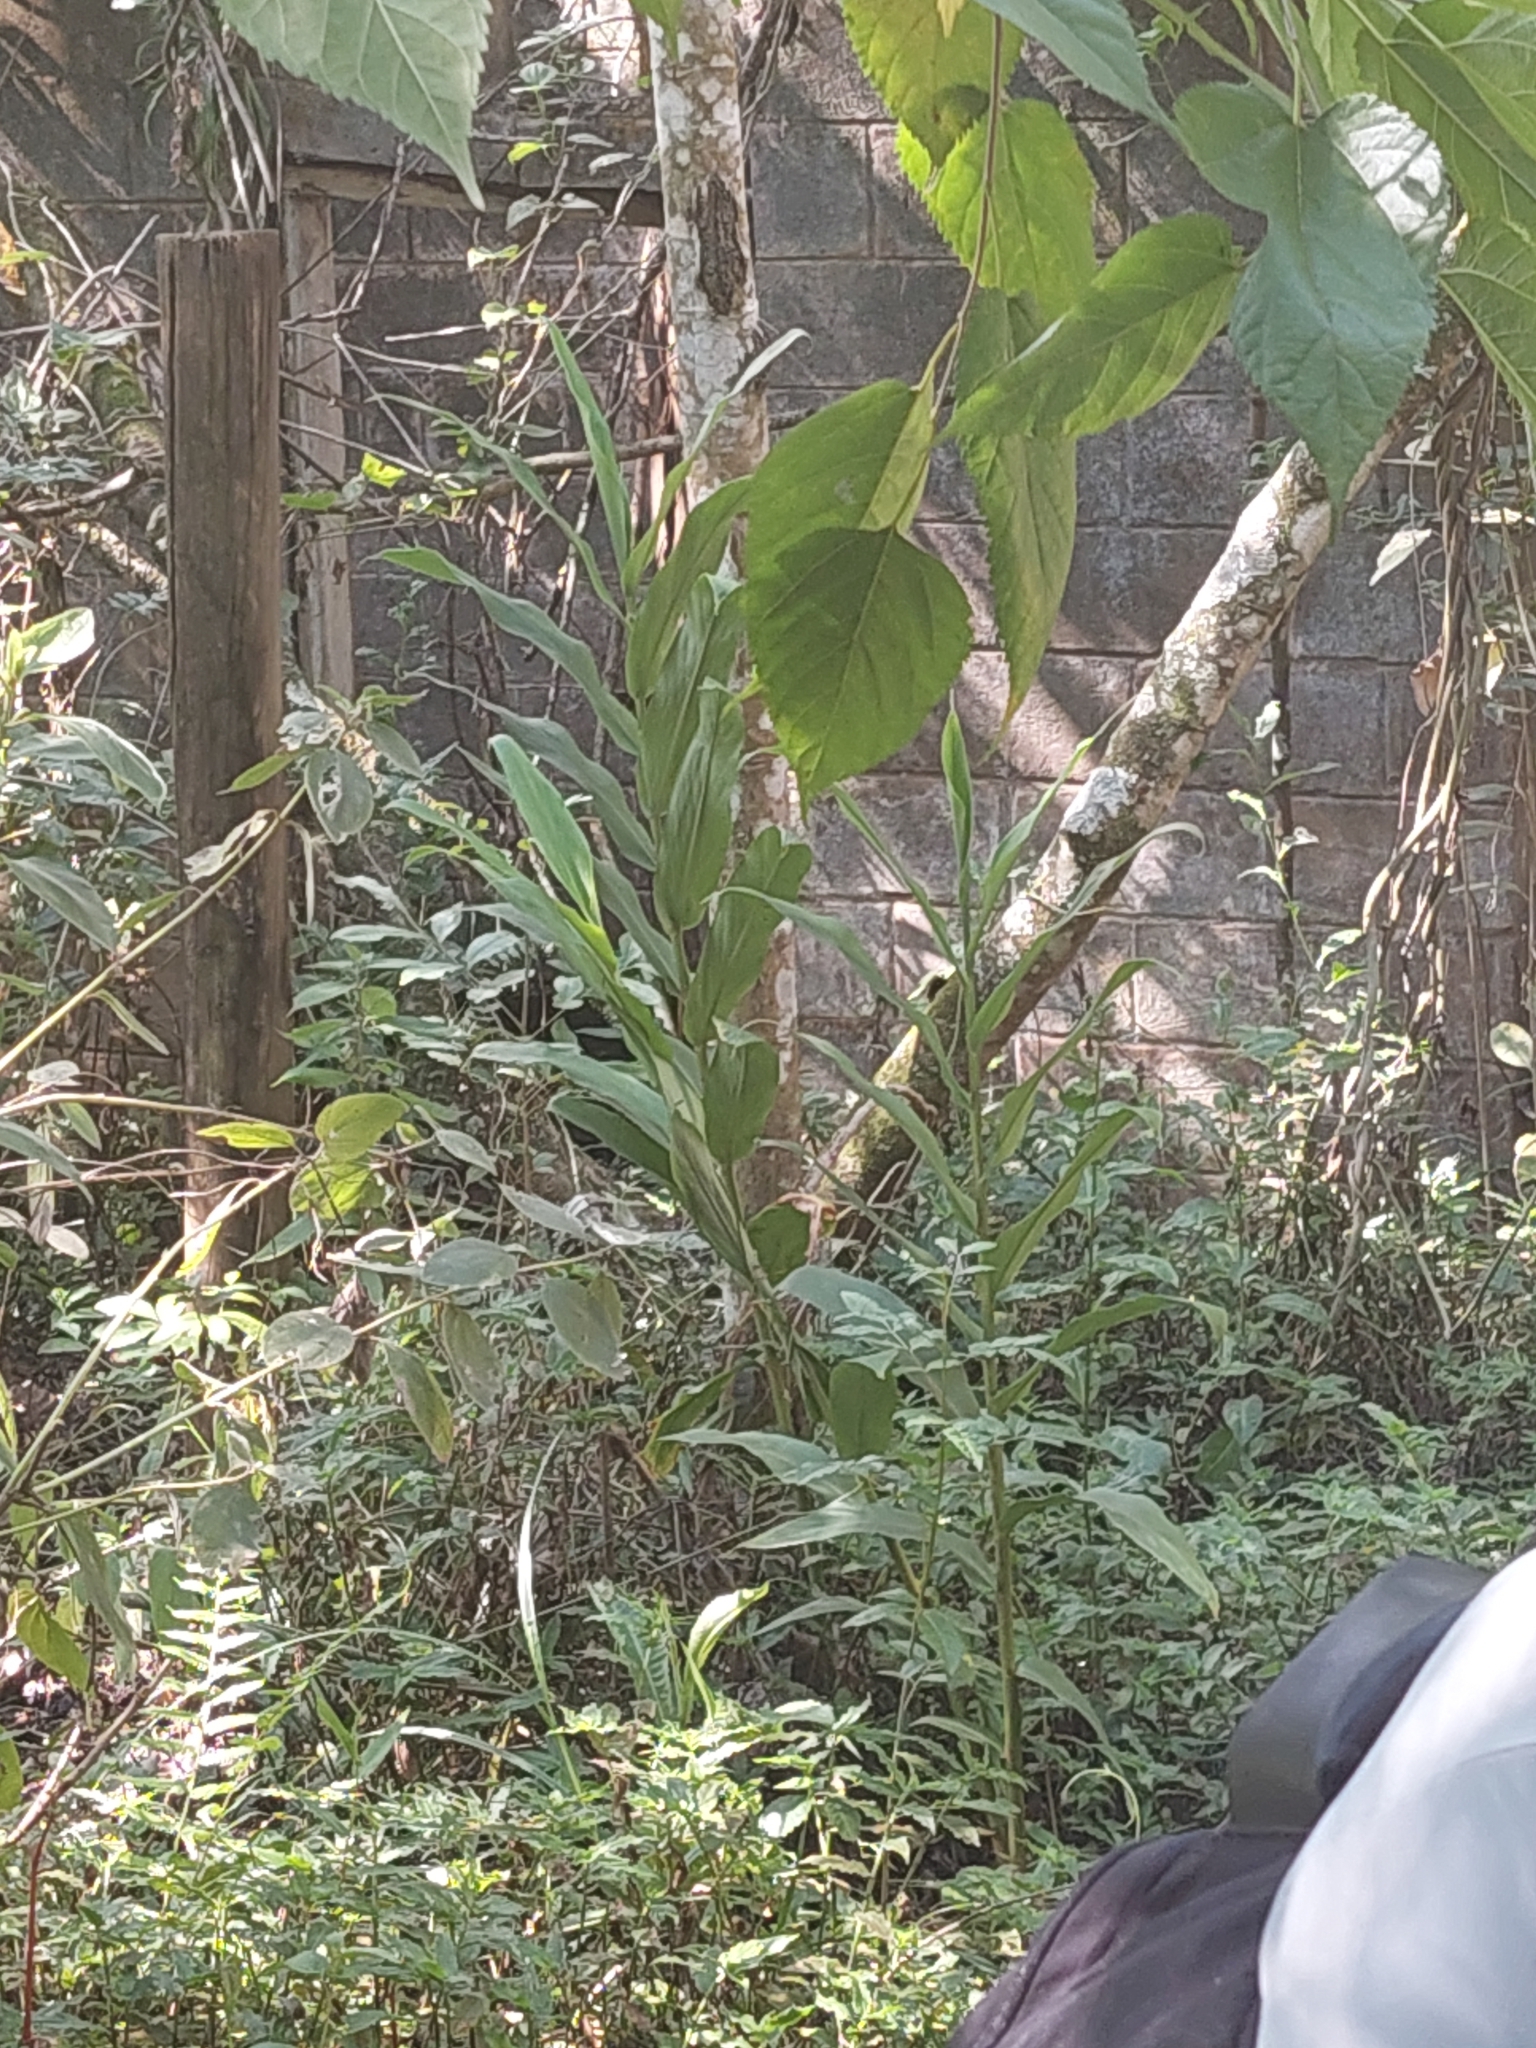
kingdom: Plantae
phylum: Tracheophyta
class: Liliopsida
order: Zingiberales
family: Zingiberaceae
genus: Hedychium
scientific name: Hedychium coronarium
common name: White garland-lily
